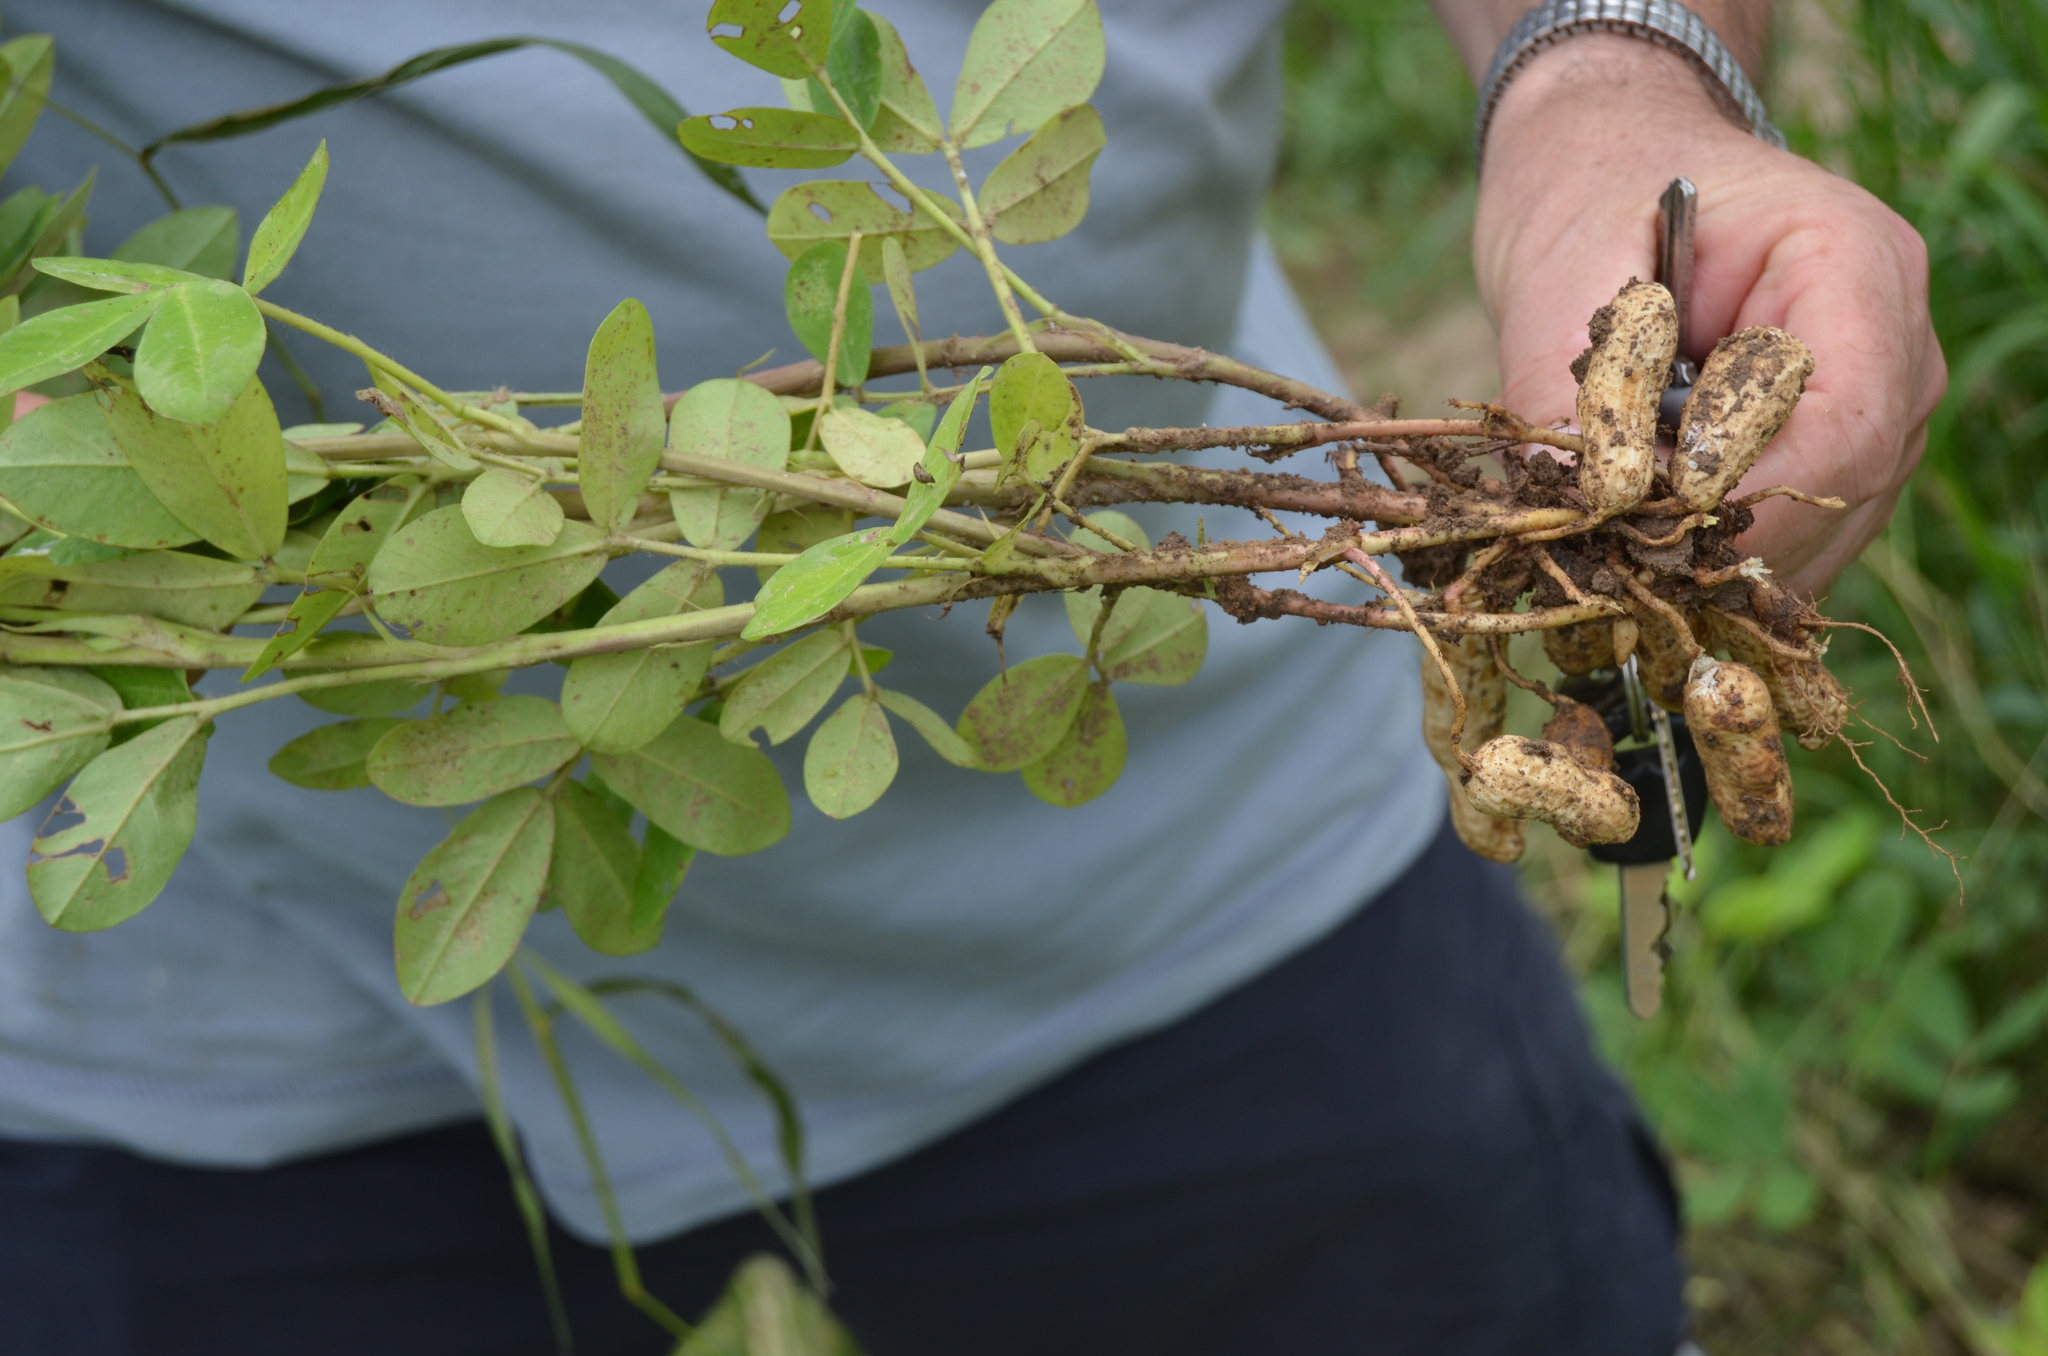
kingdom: Plantae
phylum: Tracheophyta
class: Magnoliopsida
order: Fabales
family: Fabaceae
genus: Arachis
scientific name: Arachis hypogaea
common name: Peanut
